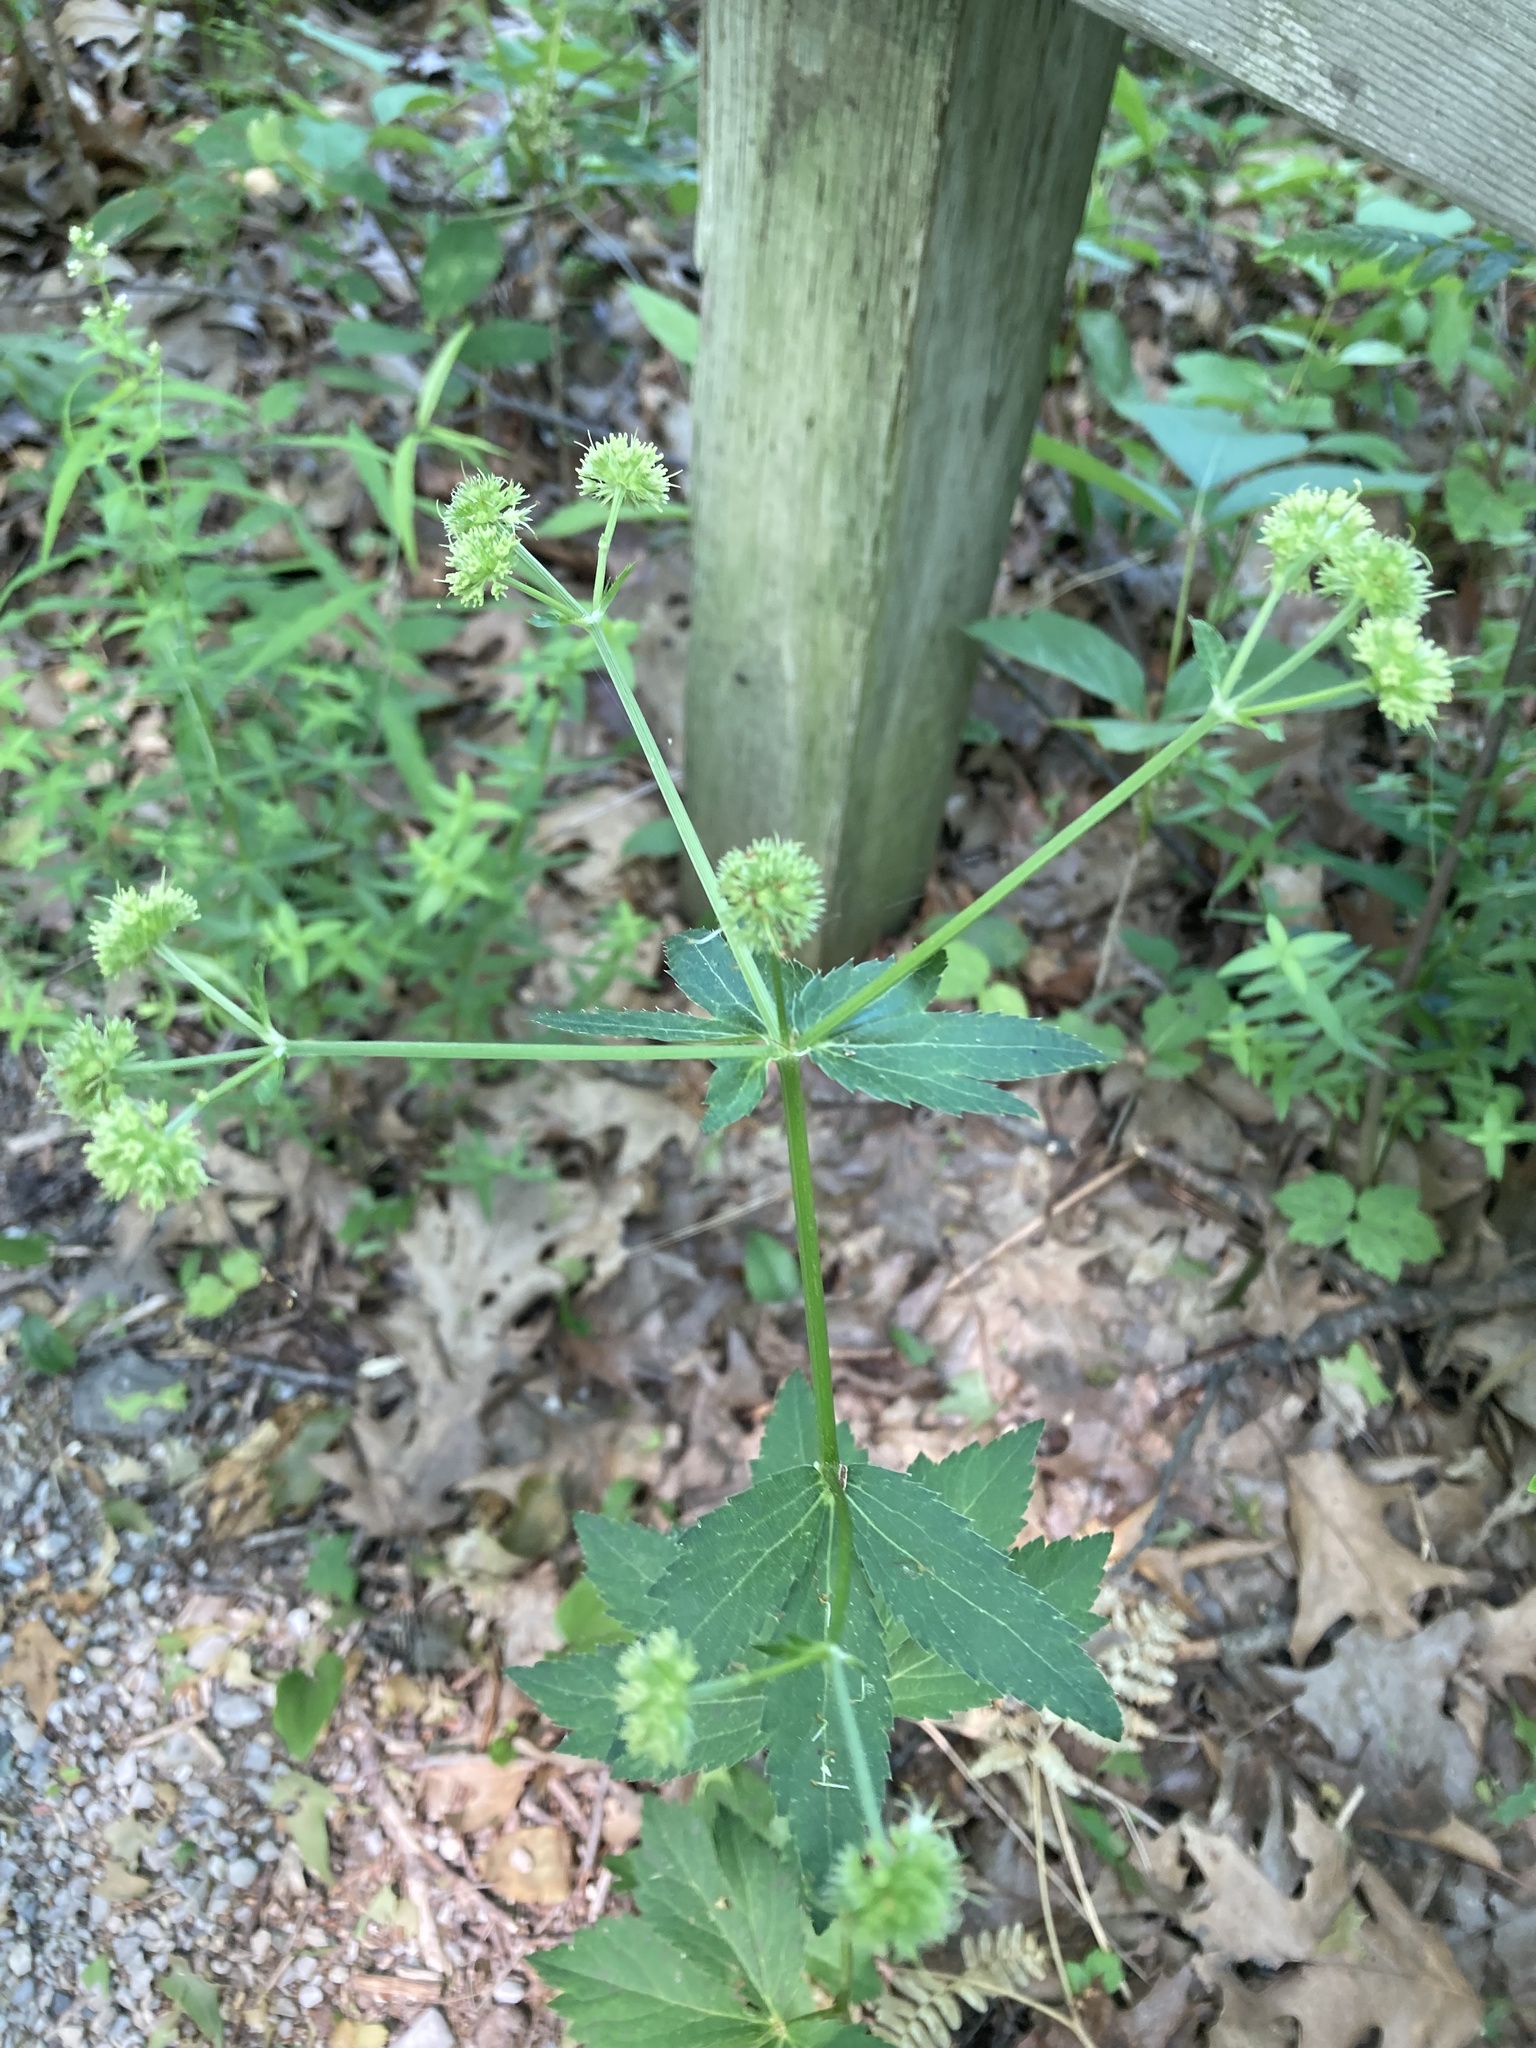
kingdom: Plantae
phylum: Tracheophyta
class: Magnoliopsida
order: Apiales
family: Apiaceae
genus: Sanicula
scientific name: Sanicula marilandica
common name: Black snakeroot
